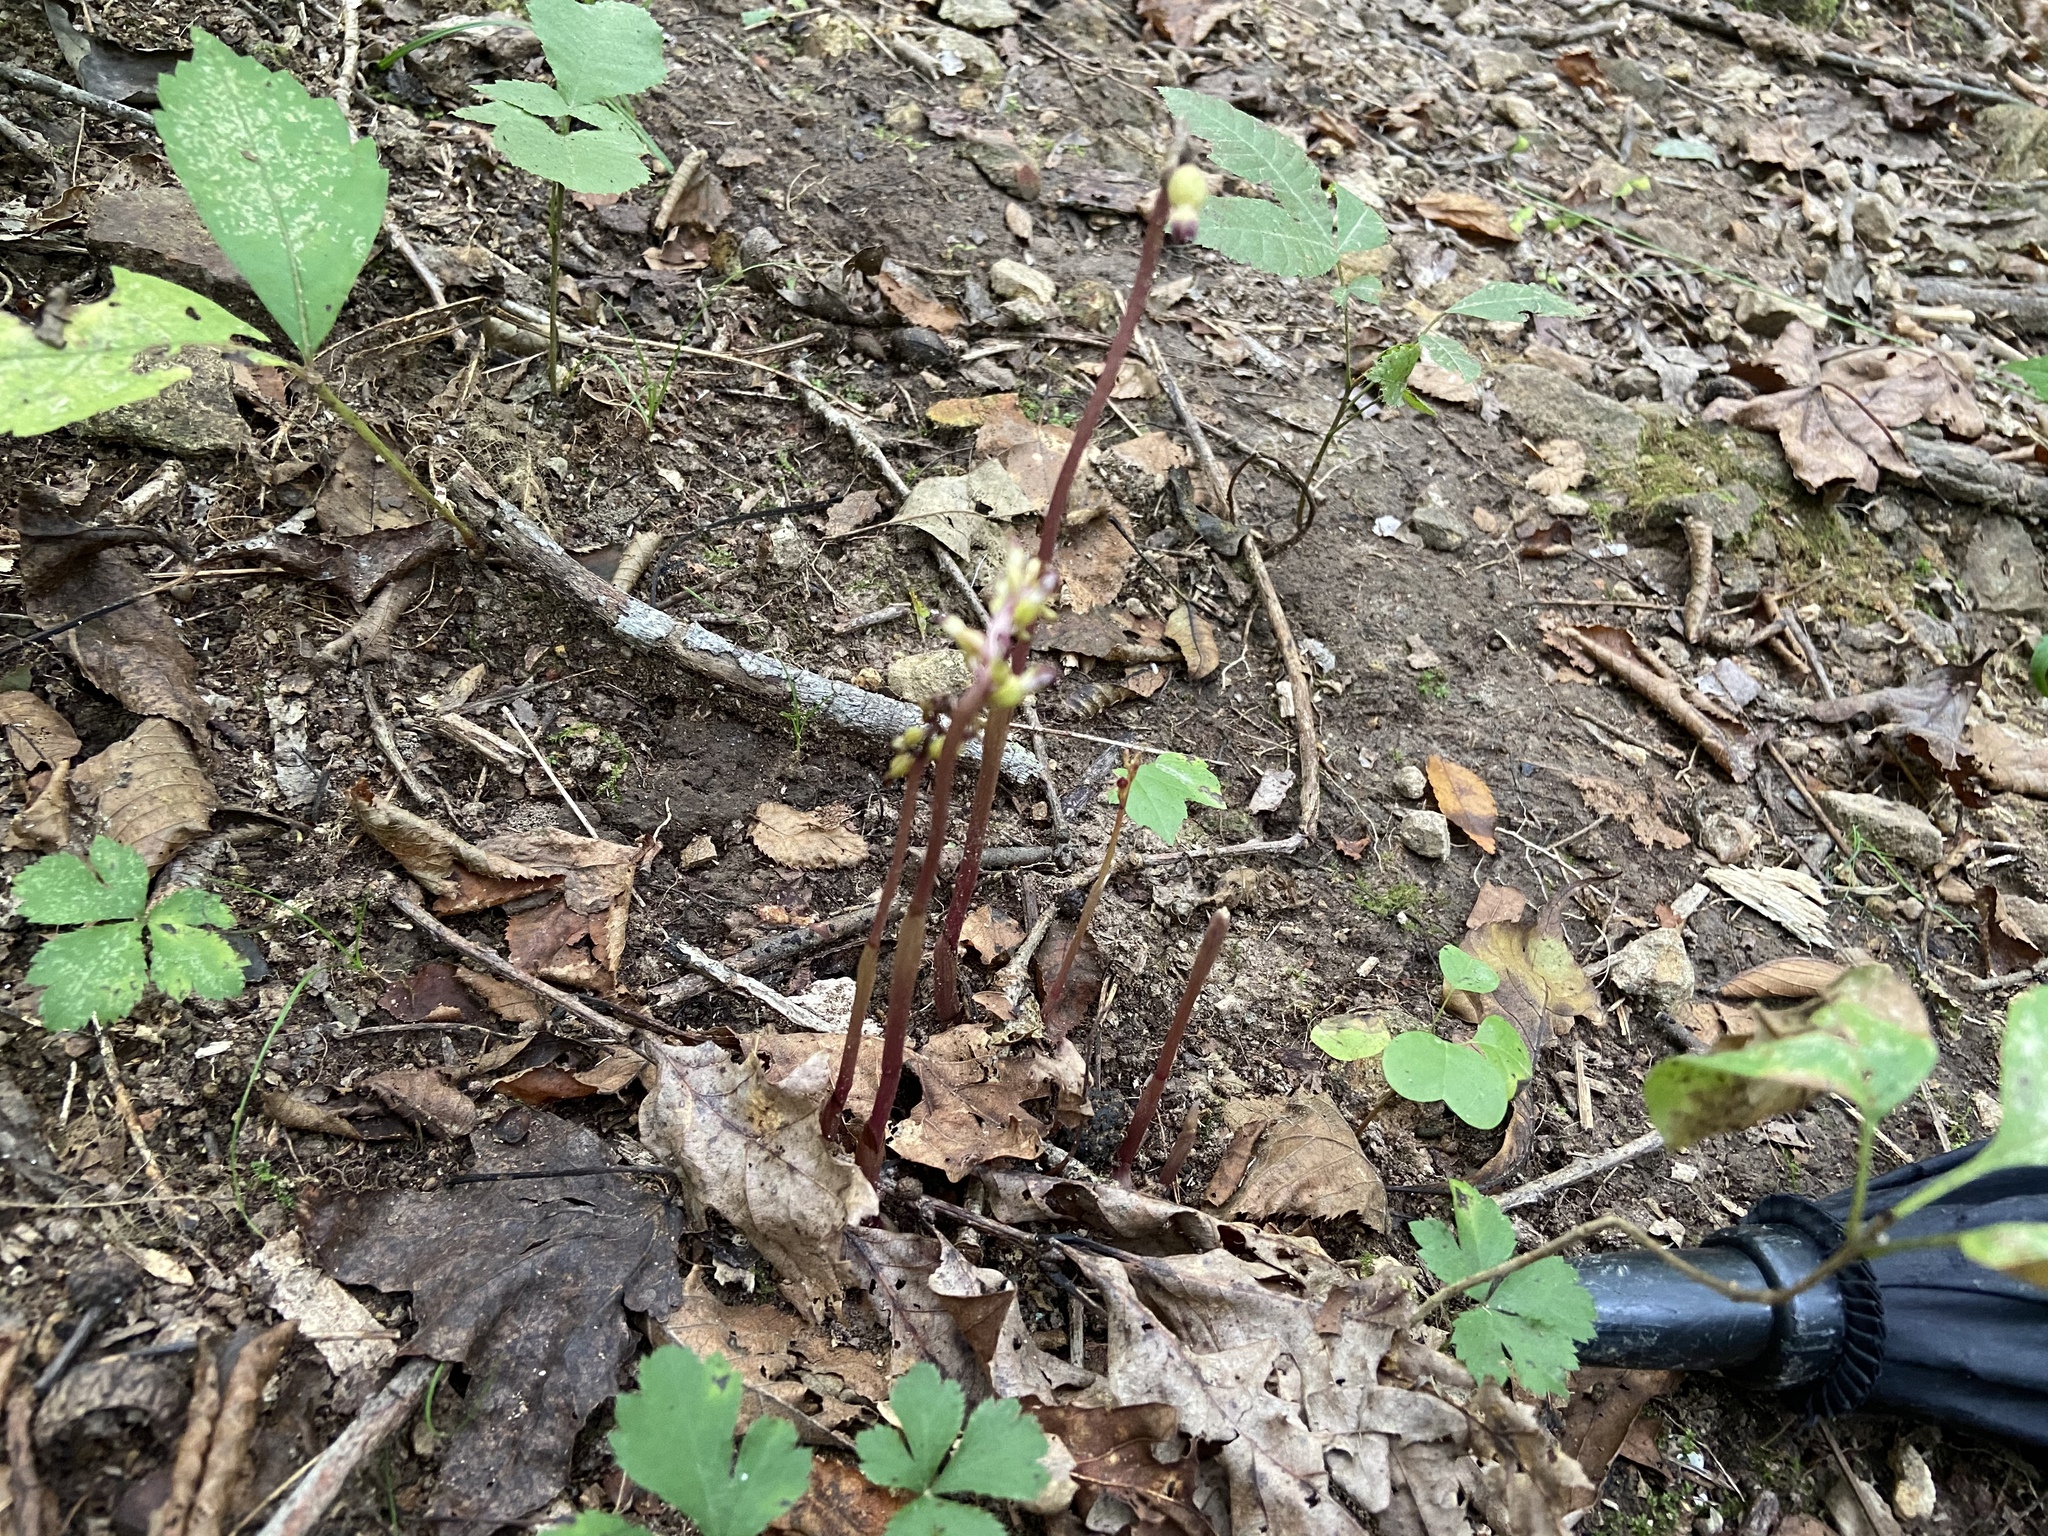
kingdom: Plantae
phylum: Tracheophyta
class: Liliopsida
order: Asparagales
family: Orchidaceae
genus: Corallorhiza
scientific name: Corallorhiza odontorhiza
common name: Autumn coralroot
